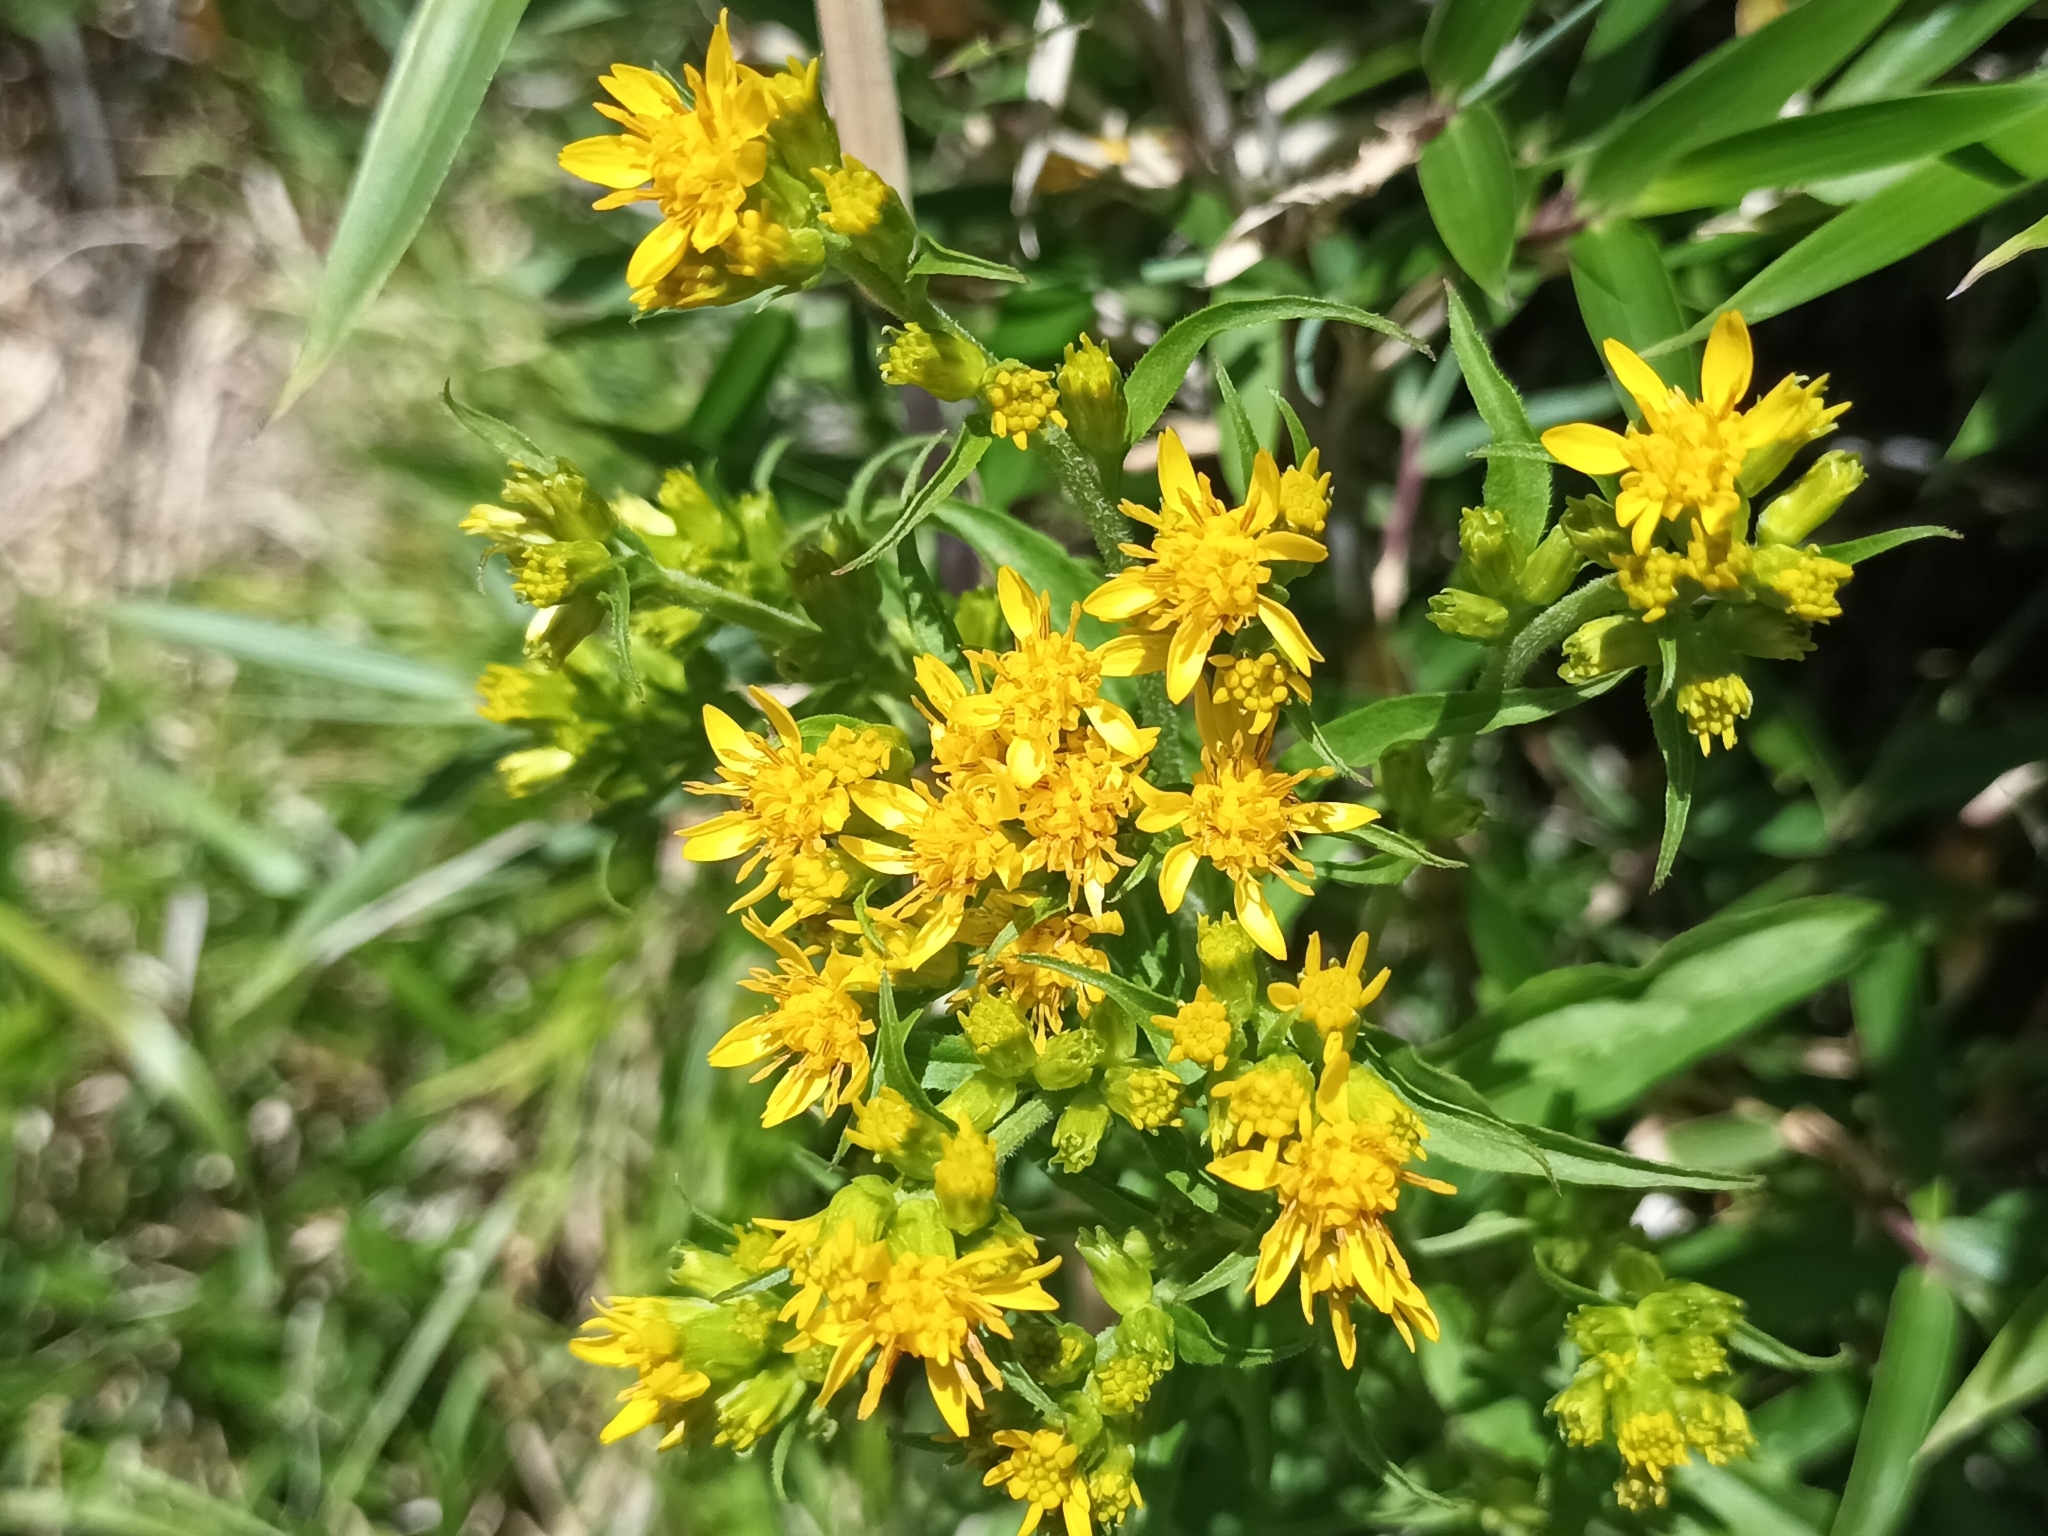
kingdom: Plantae
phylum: Tracheophyta
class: Magnoliopsida
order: Asterales
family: Asteraceae
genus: Solidago
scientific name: Solidago decurrens
